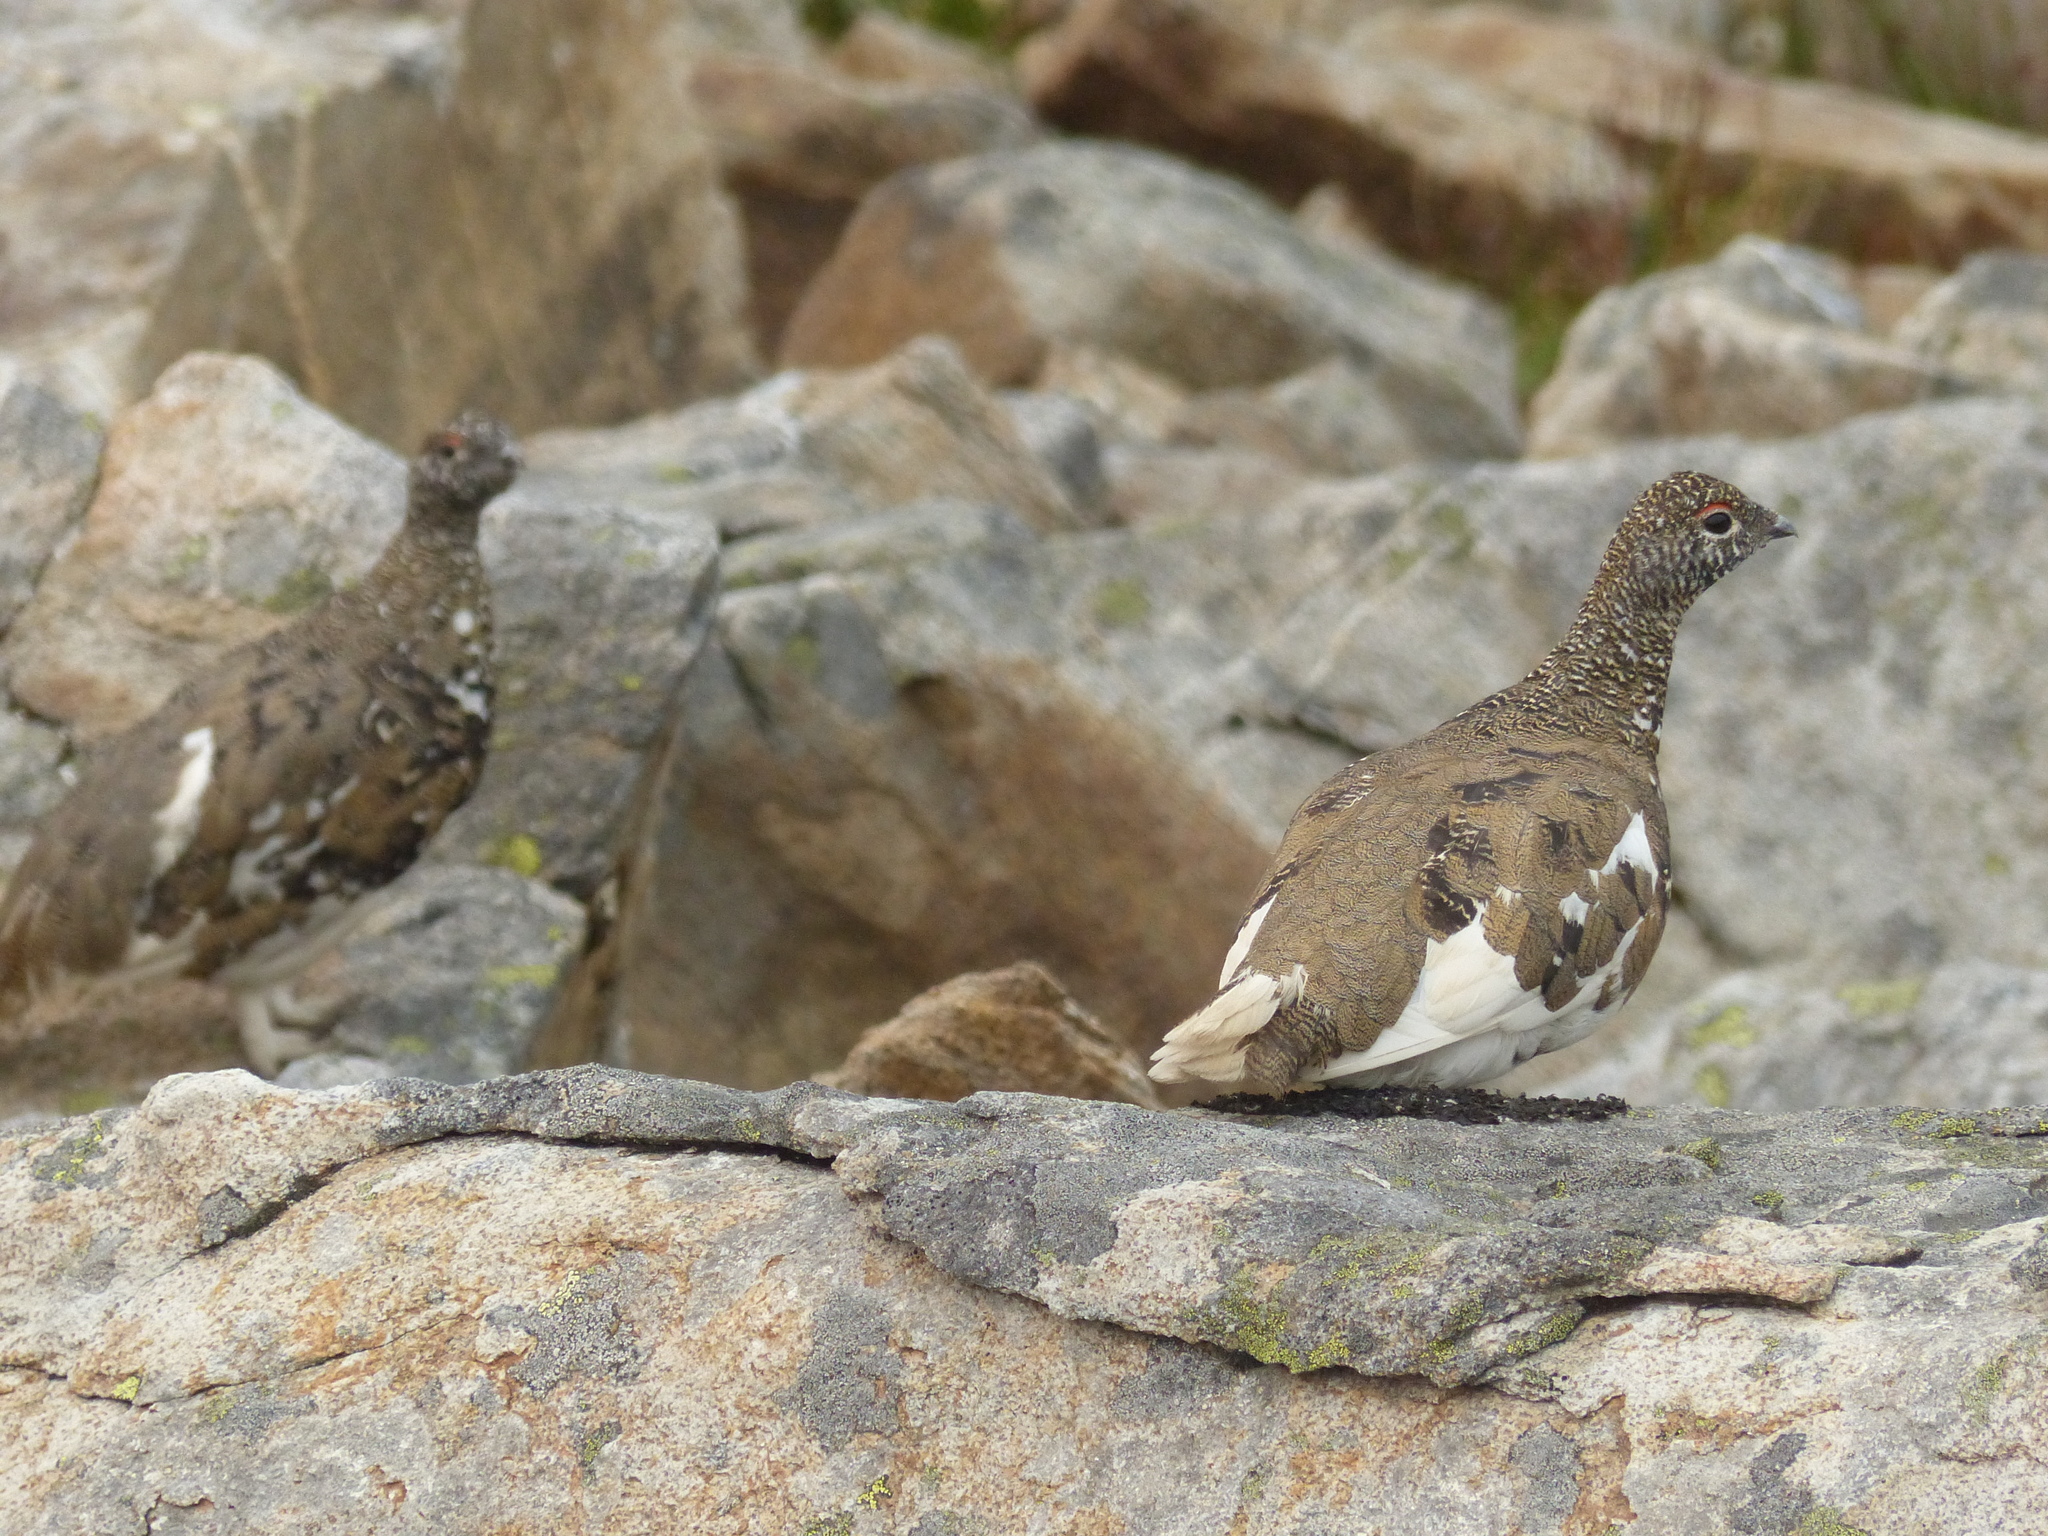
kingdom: Animalia
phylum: Chordata
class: Aves
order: Galliformes
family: Phasianidae
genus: Lagopus
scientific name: Lagopus leucura
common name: White-tailed ptarmigan
